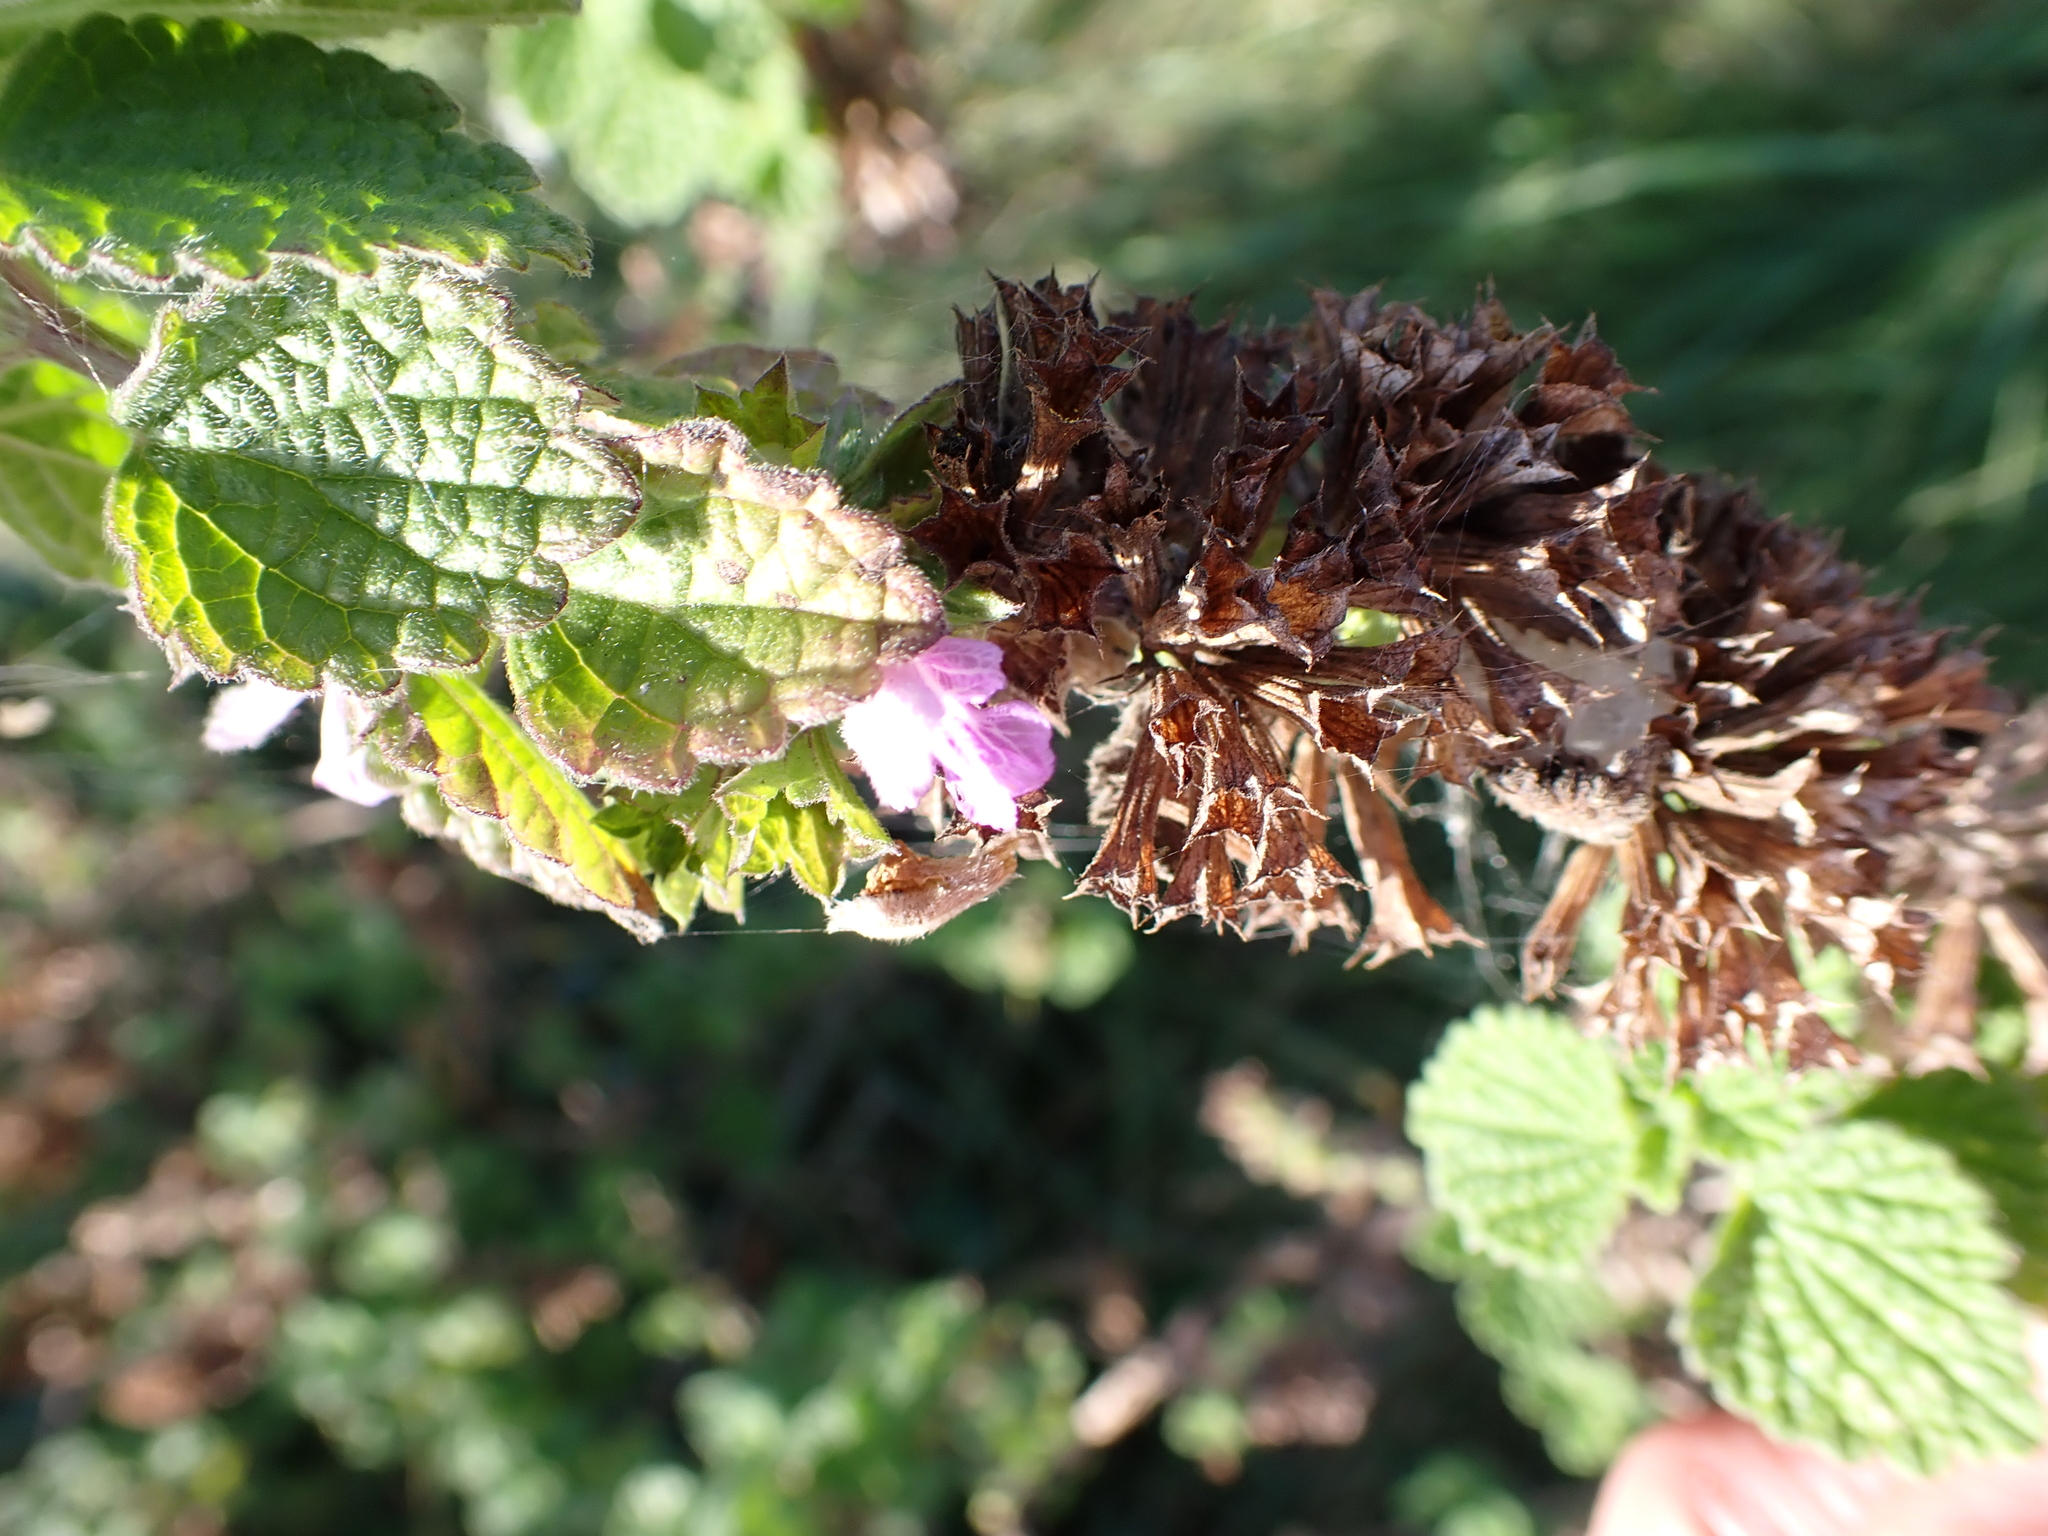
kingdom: Plantae
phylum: Tracheophyta
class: Magnoliopsida
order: Lamiales
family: Lamiaceae
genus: Ballota
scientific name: Ballota nigra
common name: Black horehound
